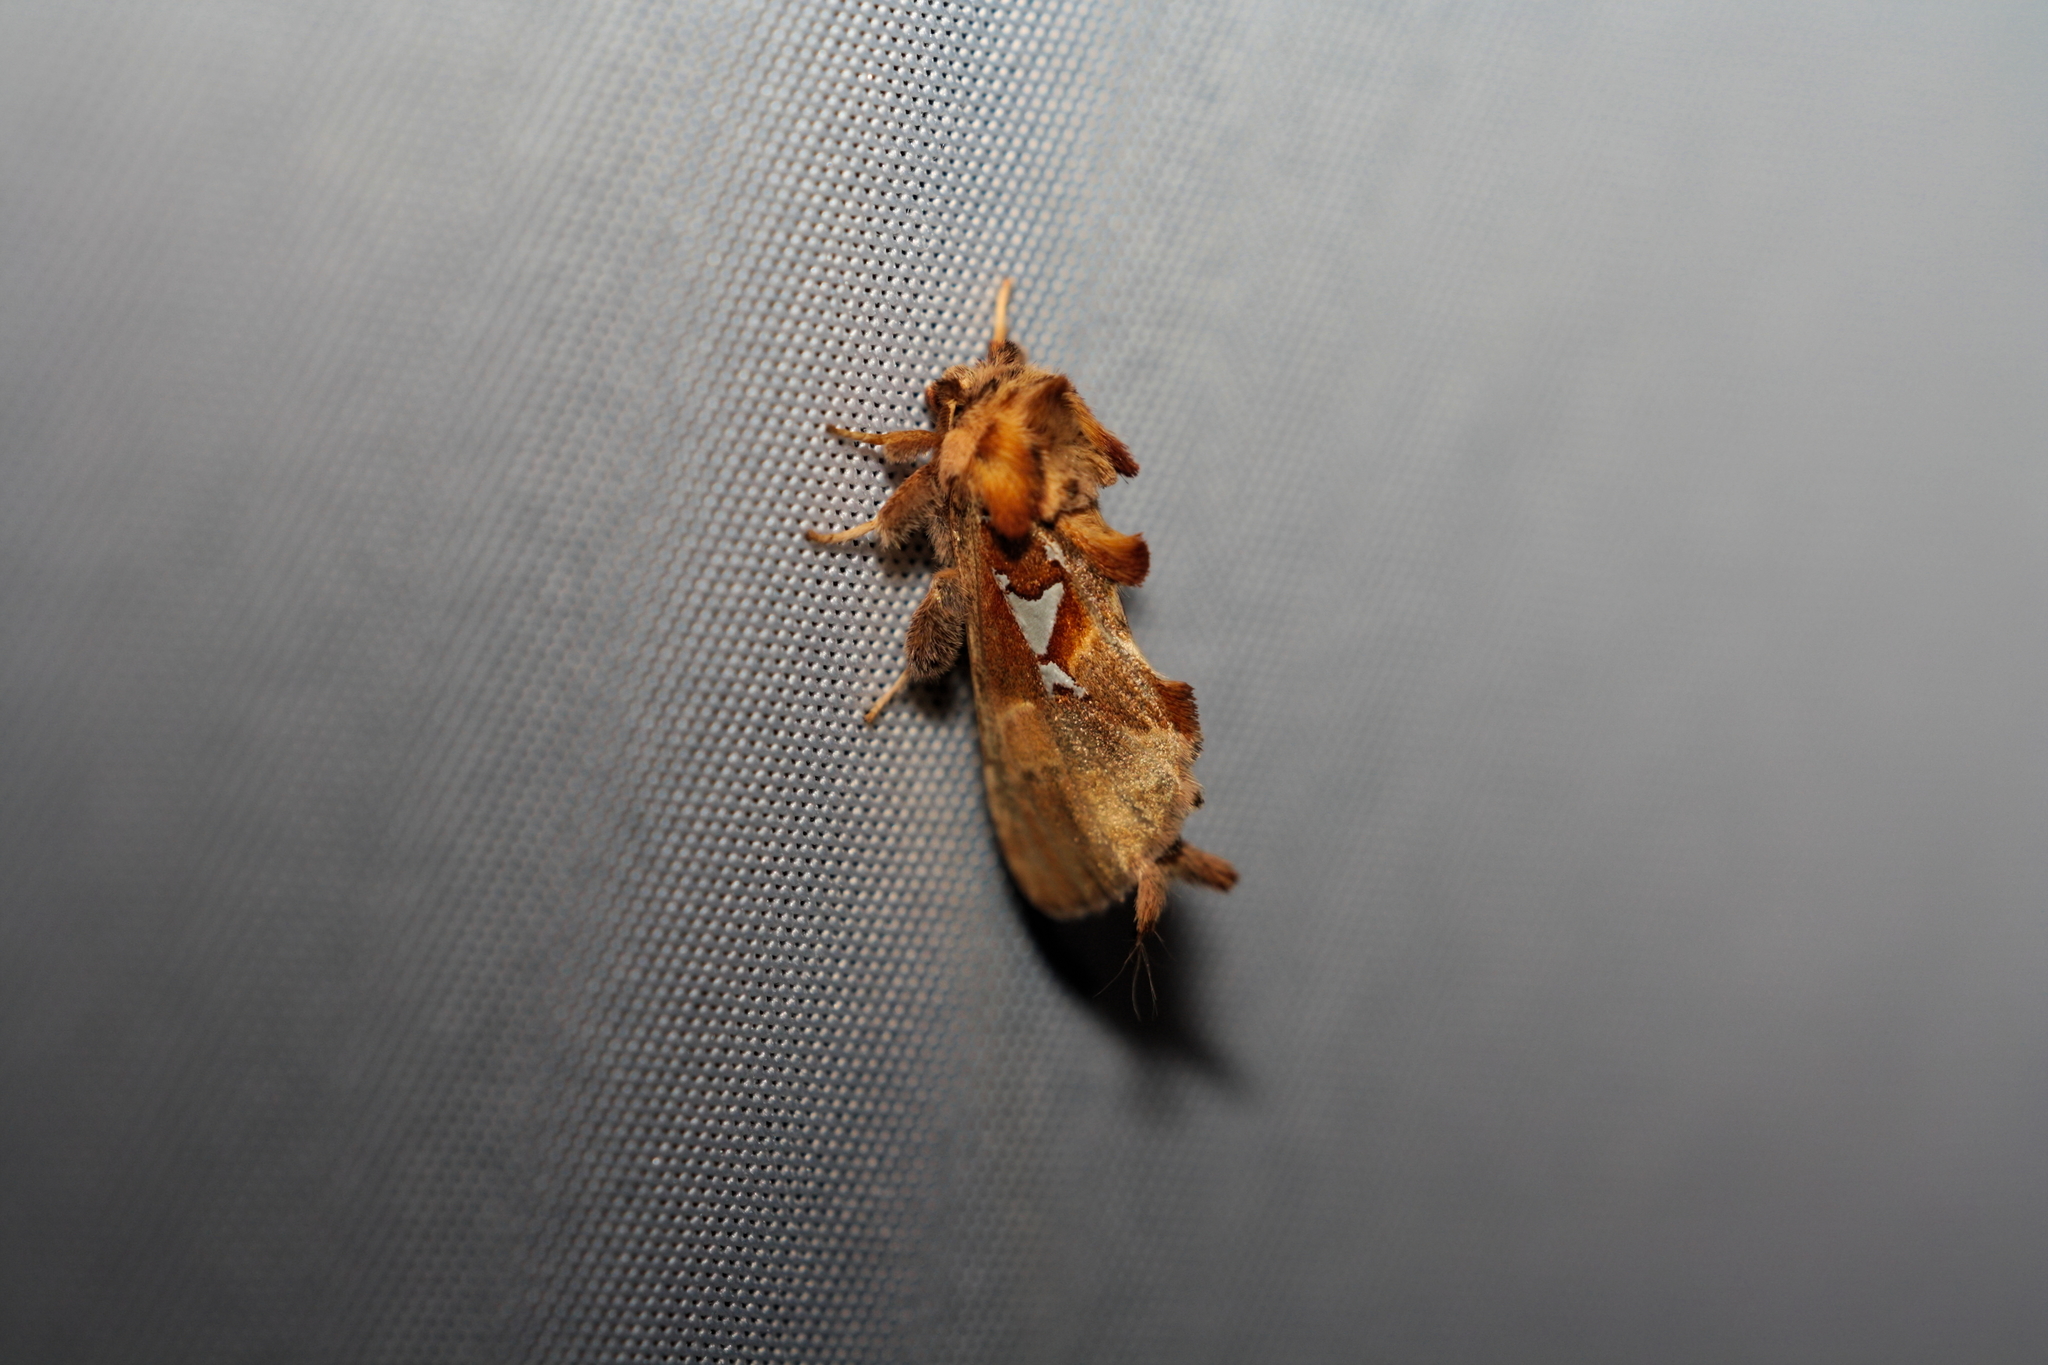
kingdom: Animalia
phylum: Arthropoda
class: Insecta
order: Lepidoptera
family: Notodontidae
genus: Spatalia
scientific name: Spatalia argentina
